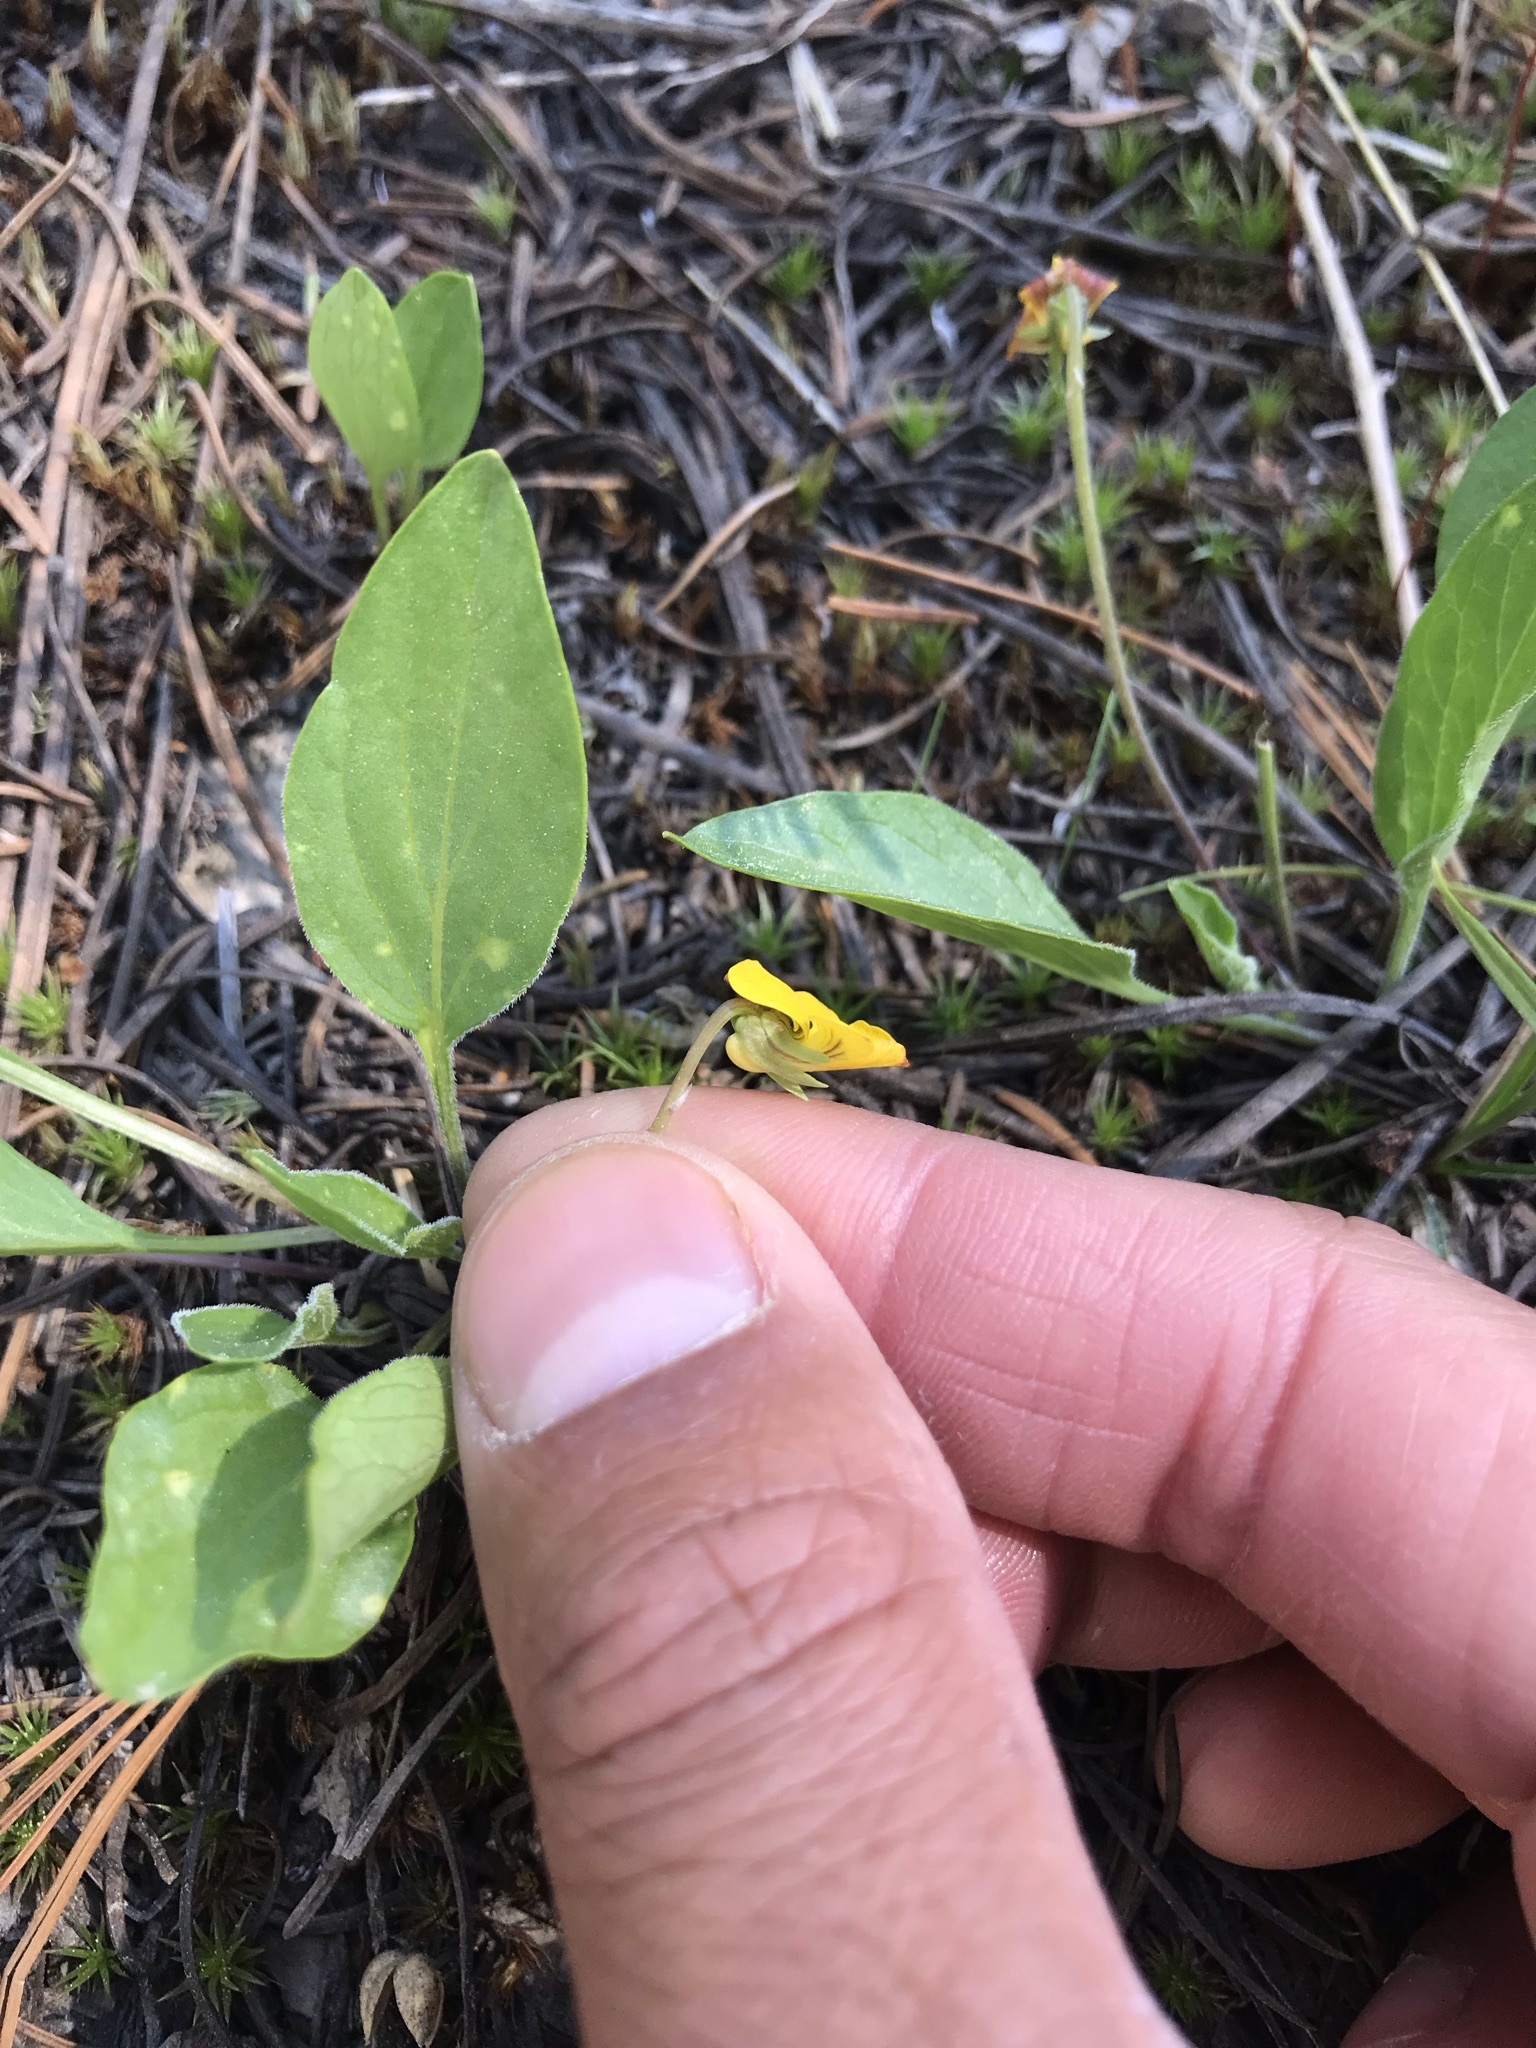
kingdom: Plantae
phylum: Tracheophyta
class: Magnoliopsida
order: Malpighiales
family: Violaceae
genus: Viola
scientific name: Viola bakeri
